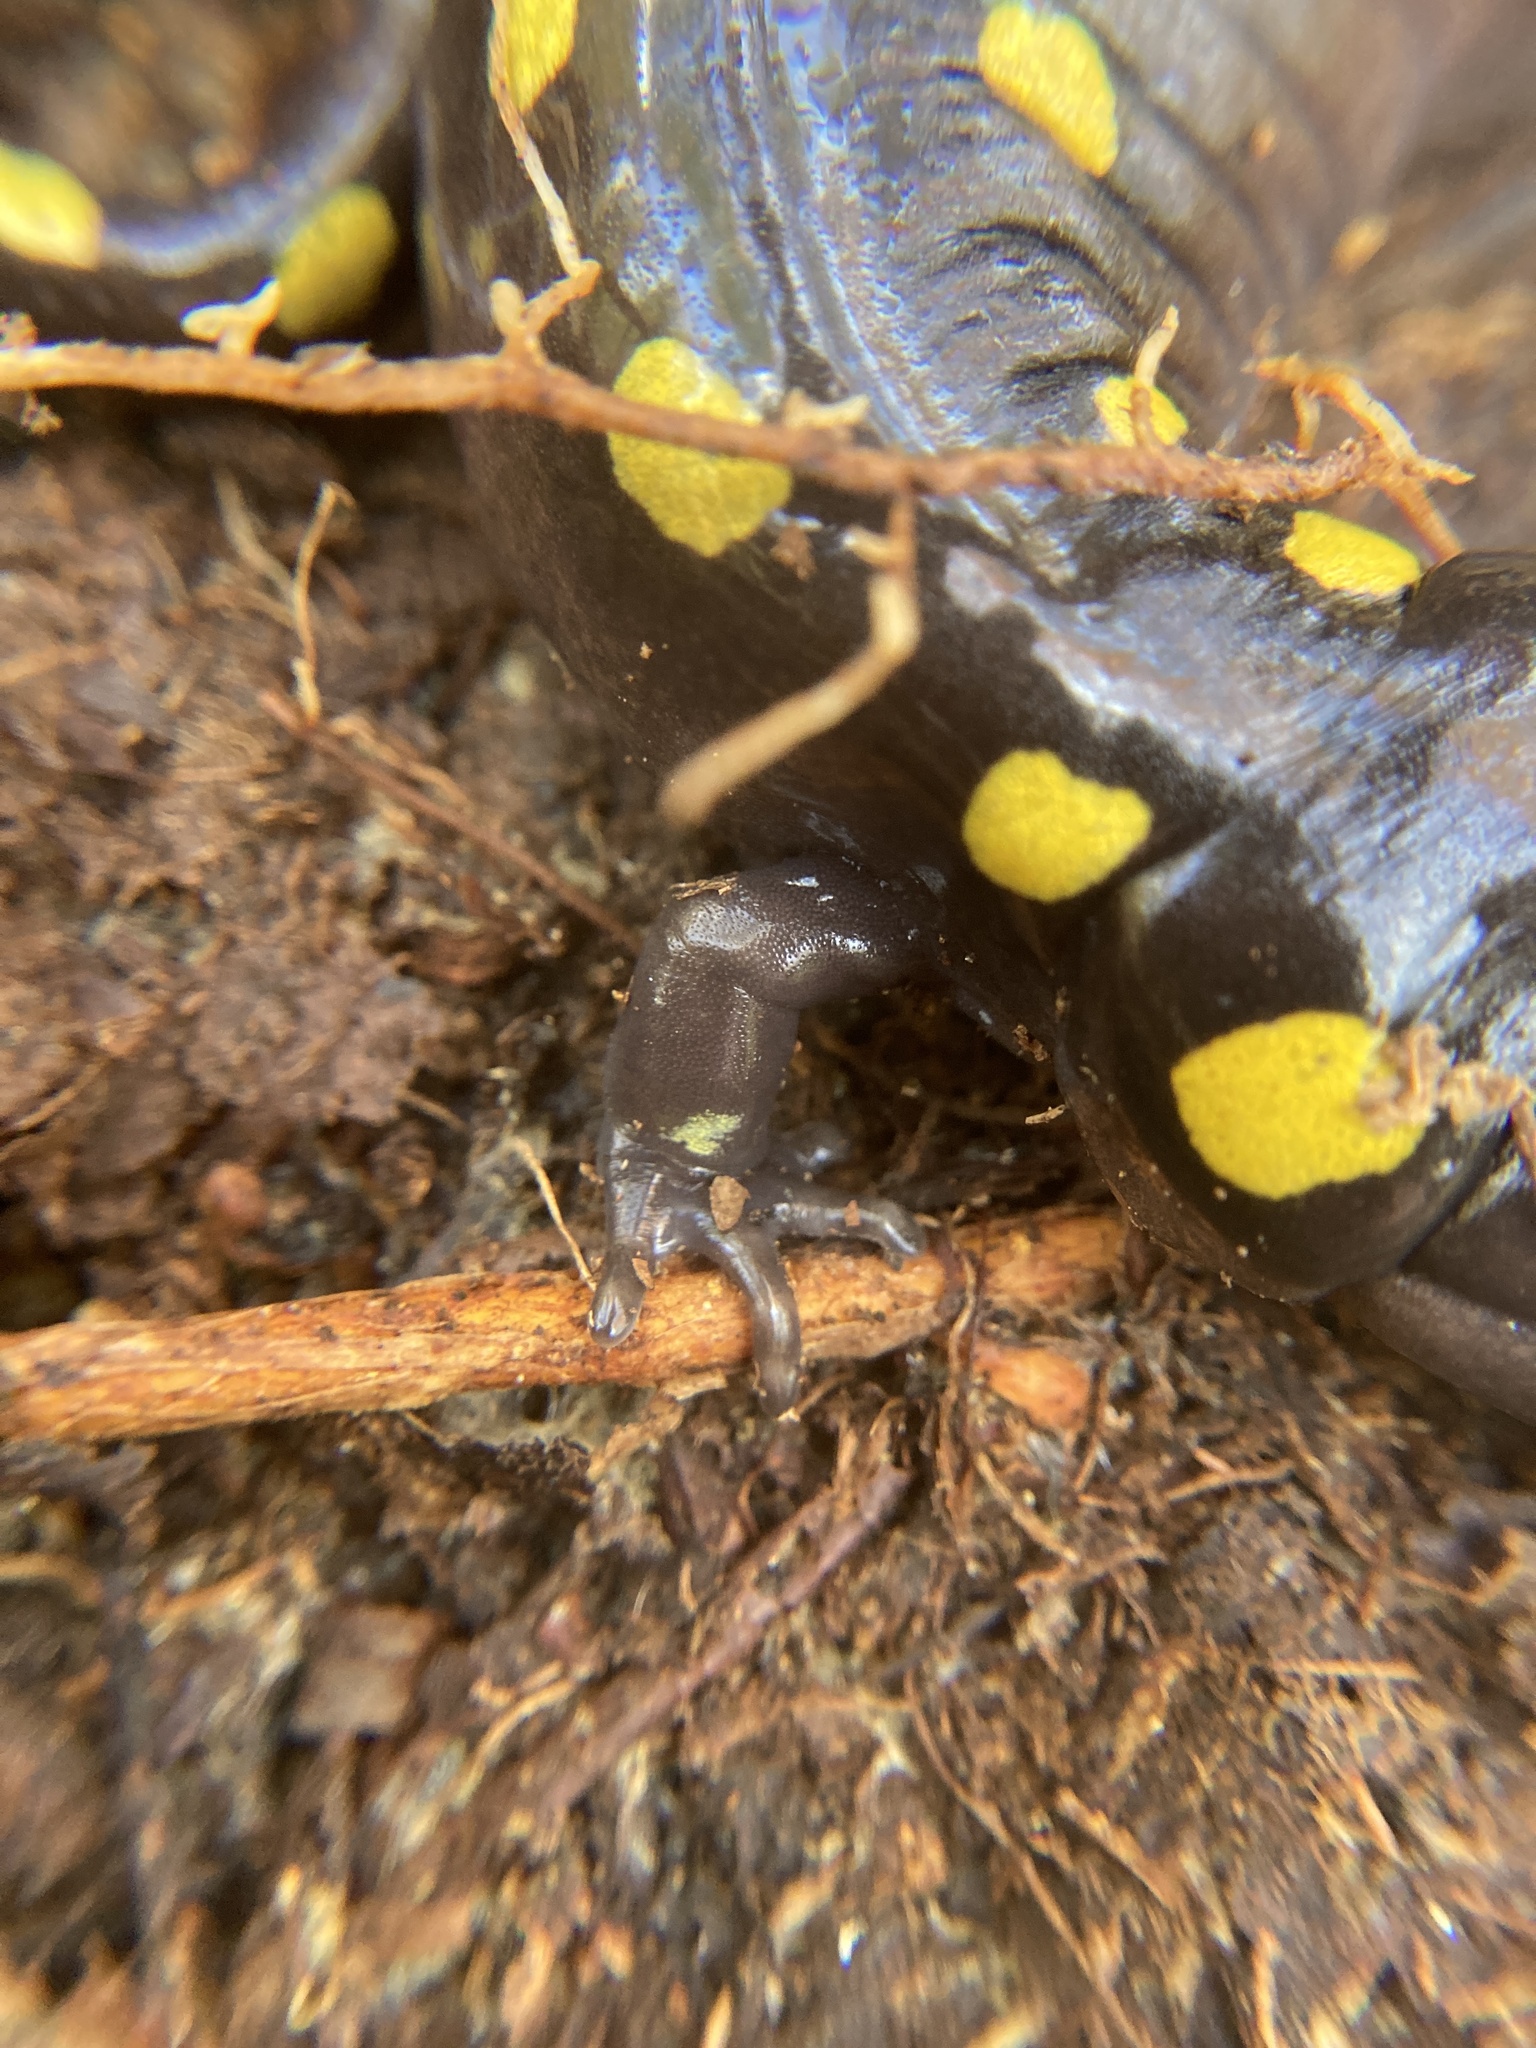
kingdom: Animalia
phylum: Chordata
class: Amphibia
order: Caudata
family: Ambystomatidae
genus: Ambystoma
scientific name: Ambystoma maculatum
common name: Spotted salamander
